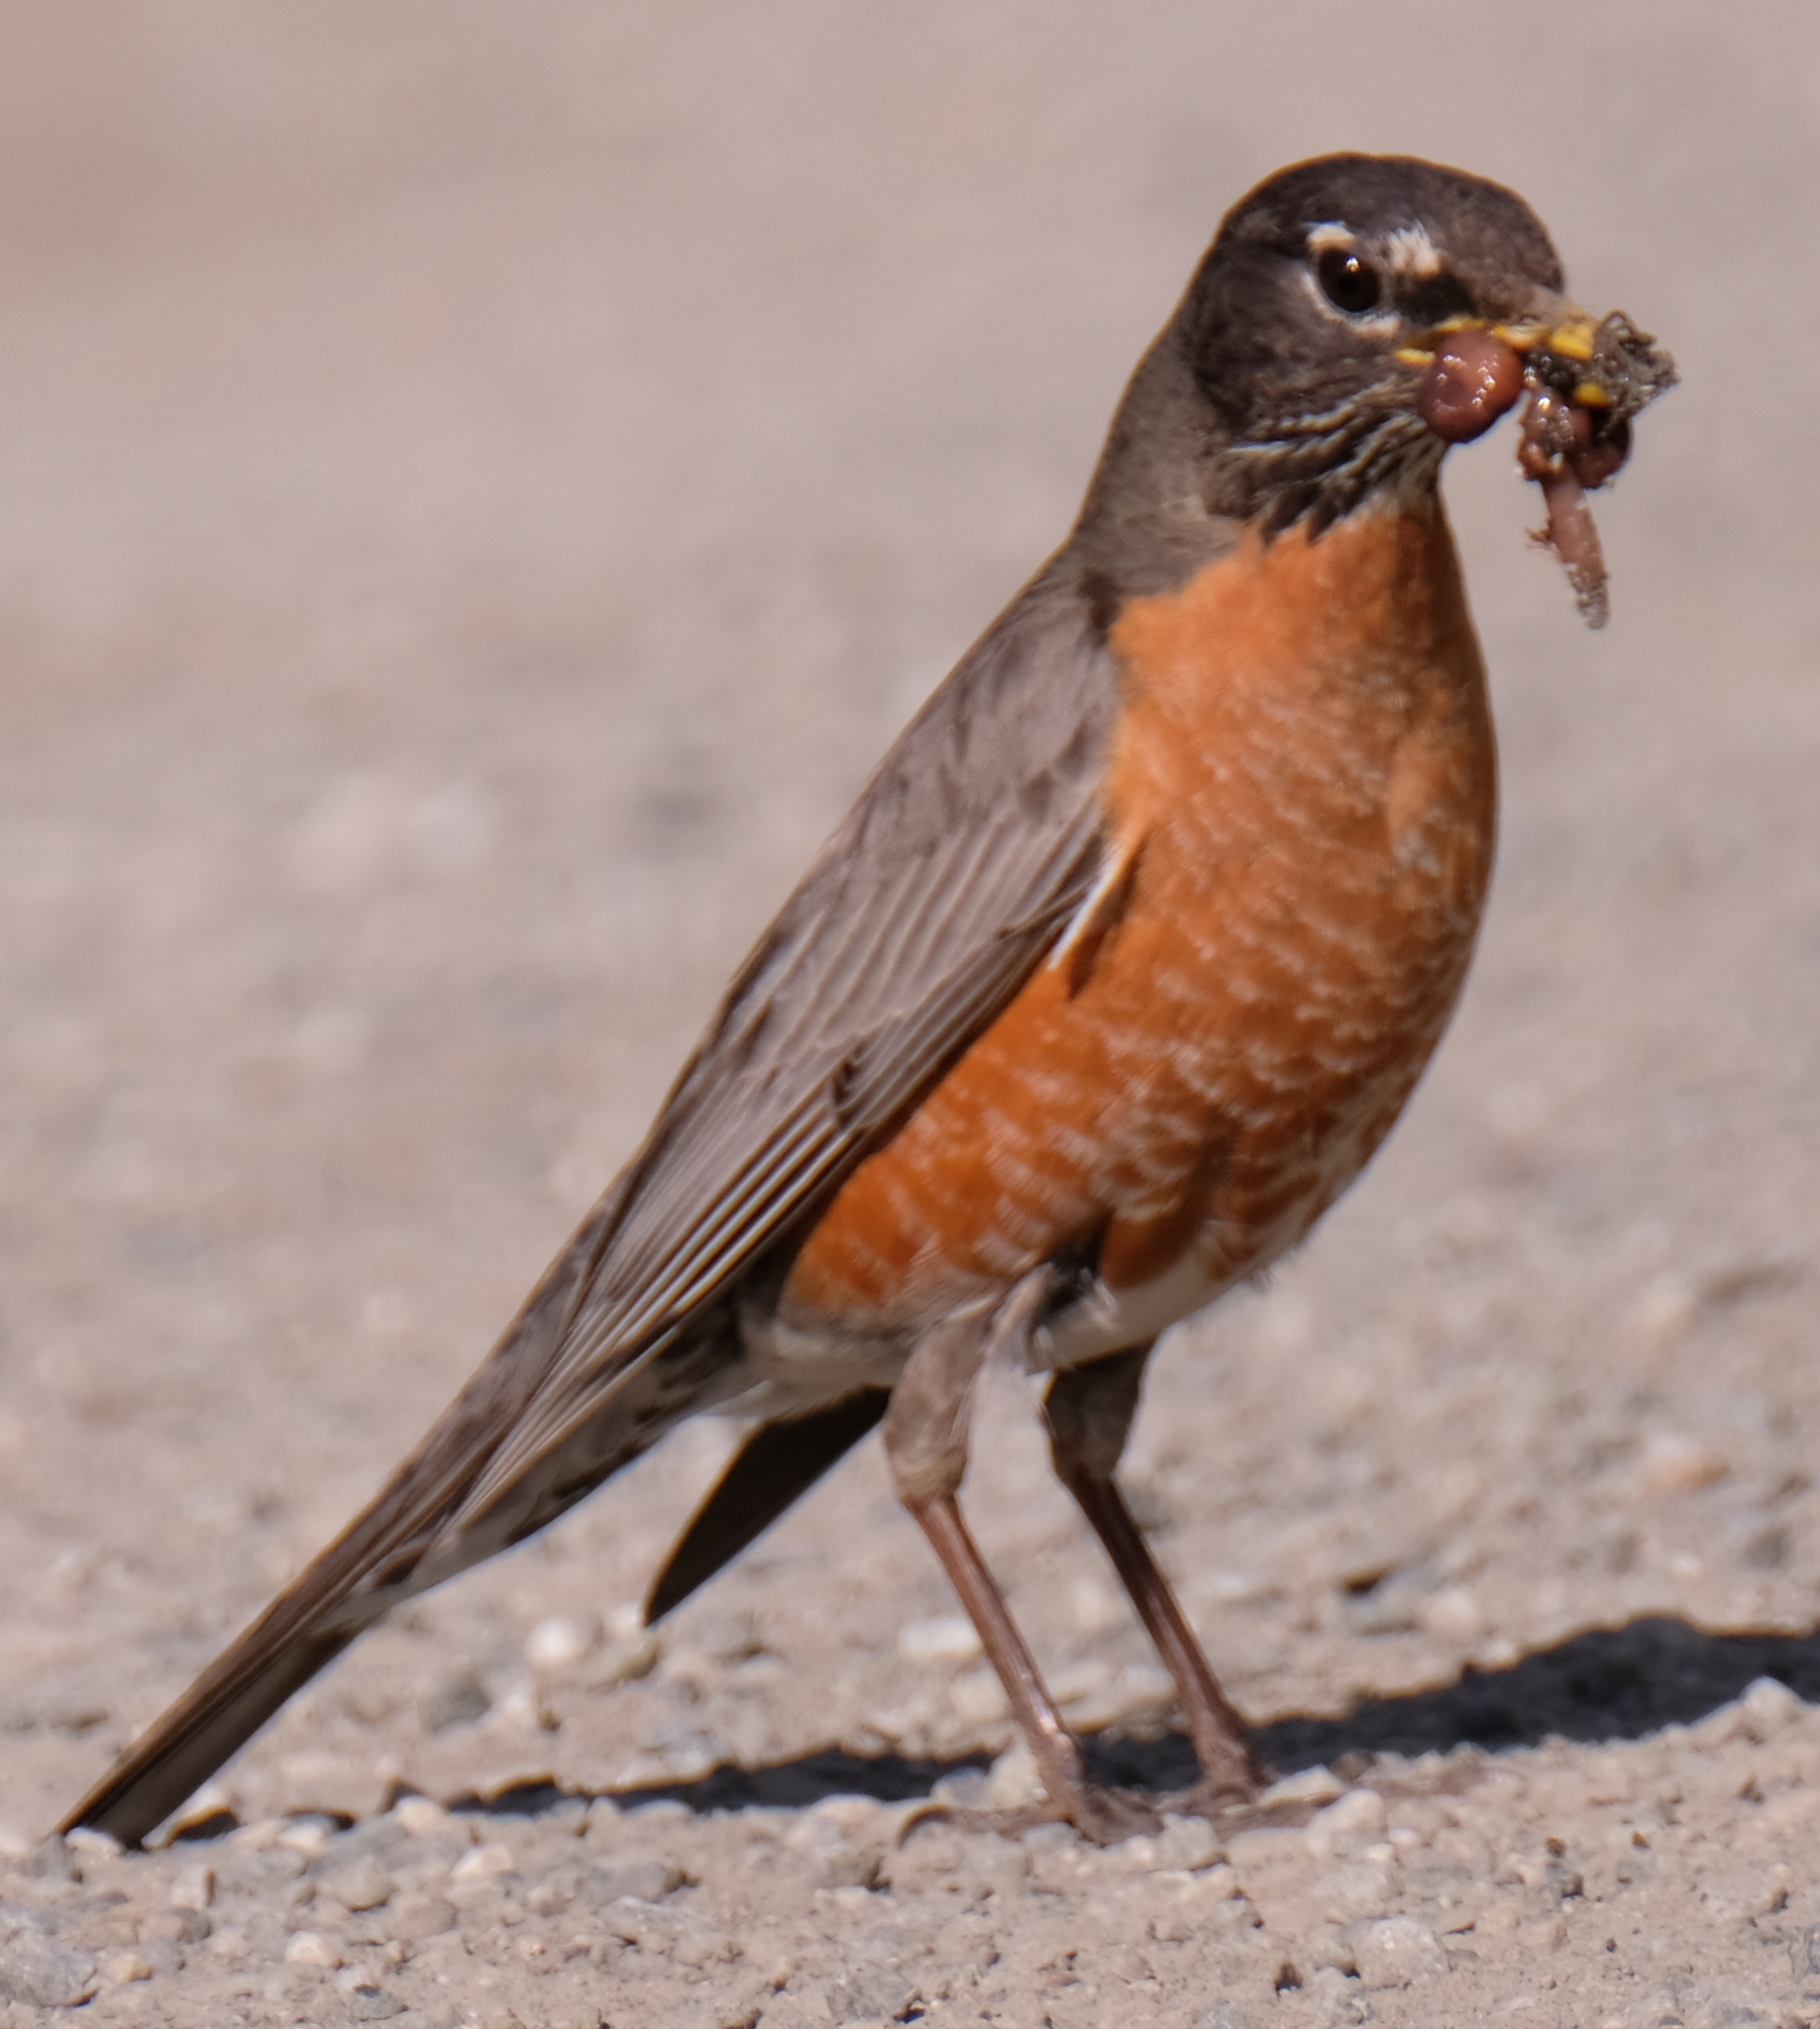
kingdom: Animalia
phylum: Chordata
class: Aves
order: Passeriformes
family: Turdidae
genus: Turdus
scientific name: Turdus migratorius
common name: American robin
